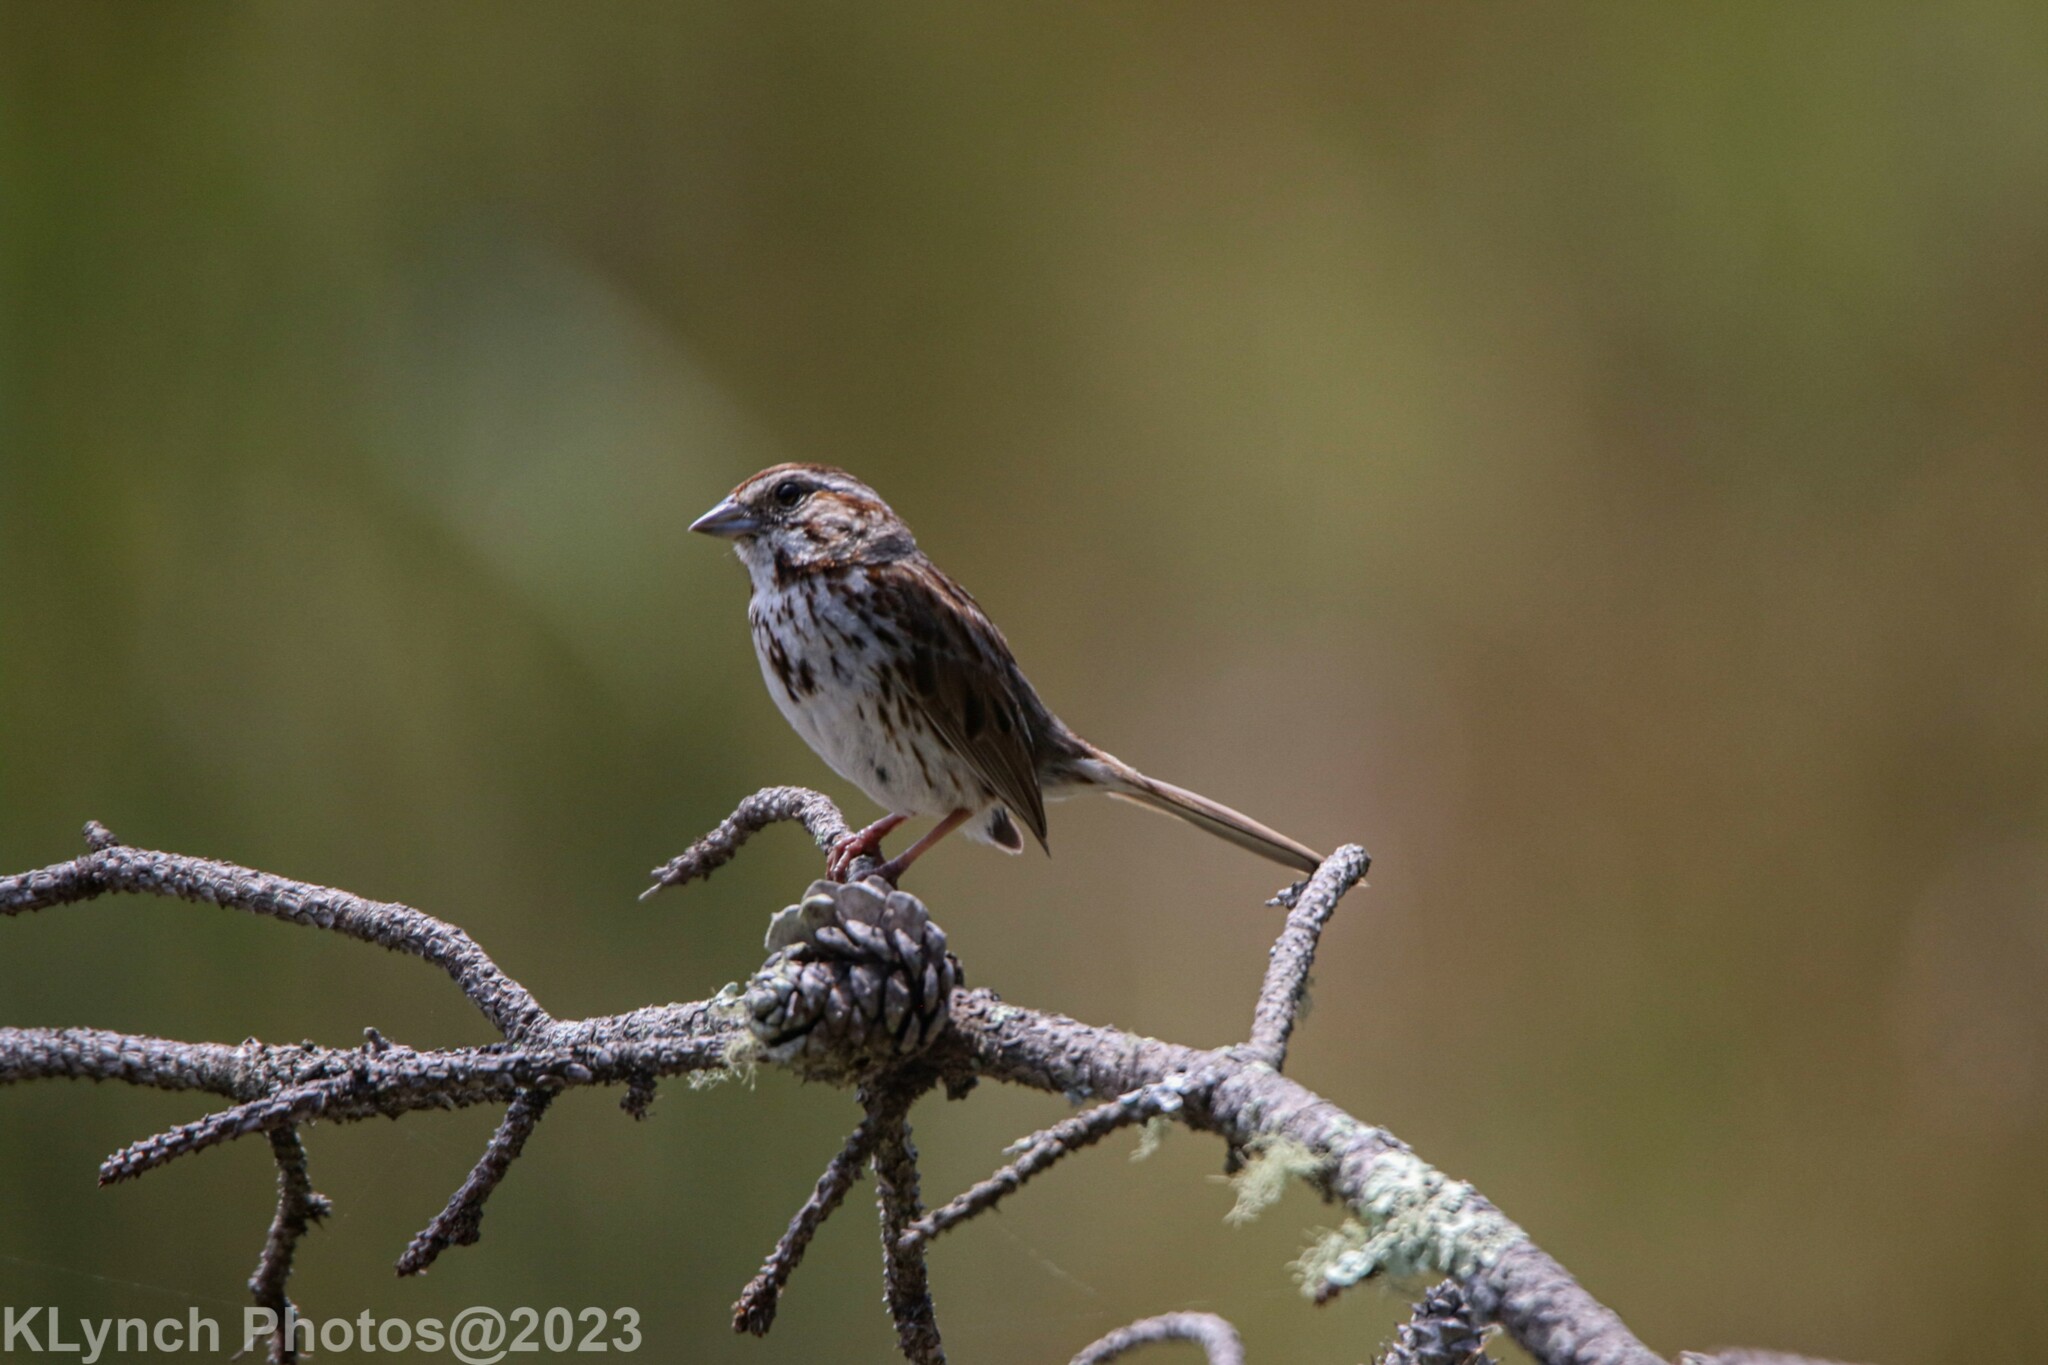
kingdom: Animalia
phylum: Chordata
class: Aves
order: Passeriformes
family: Passerellidae
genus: Melospiza
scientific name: Melospiza melodia
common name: Song sparrow
